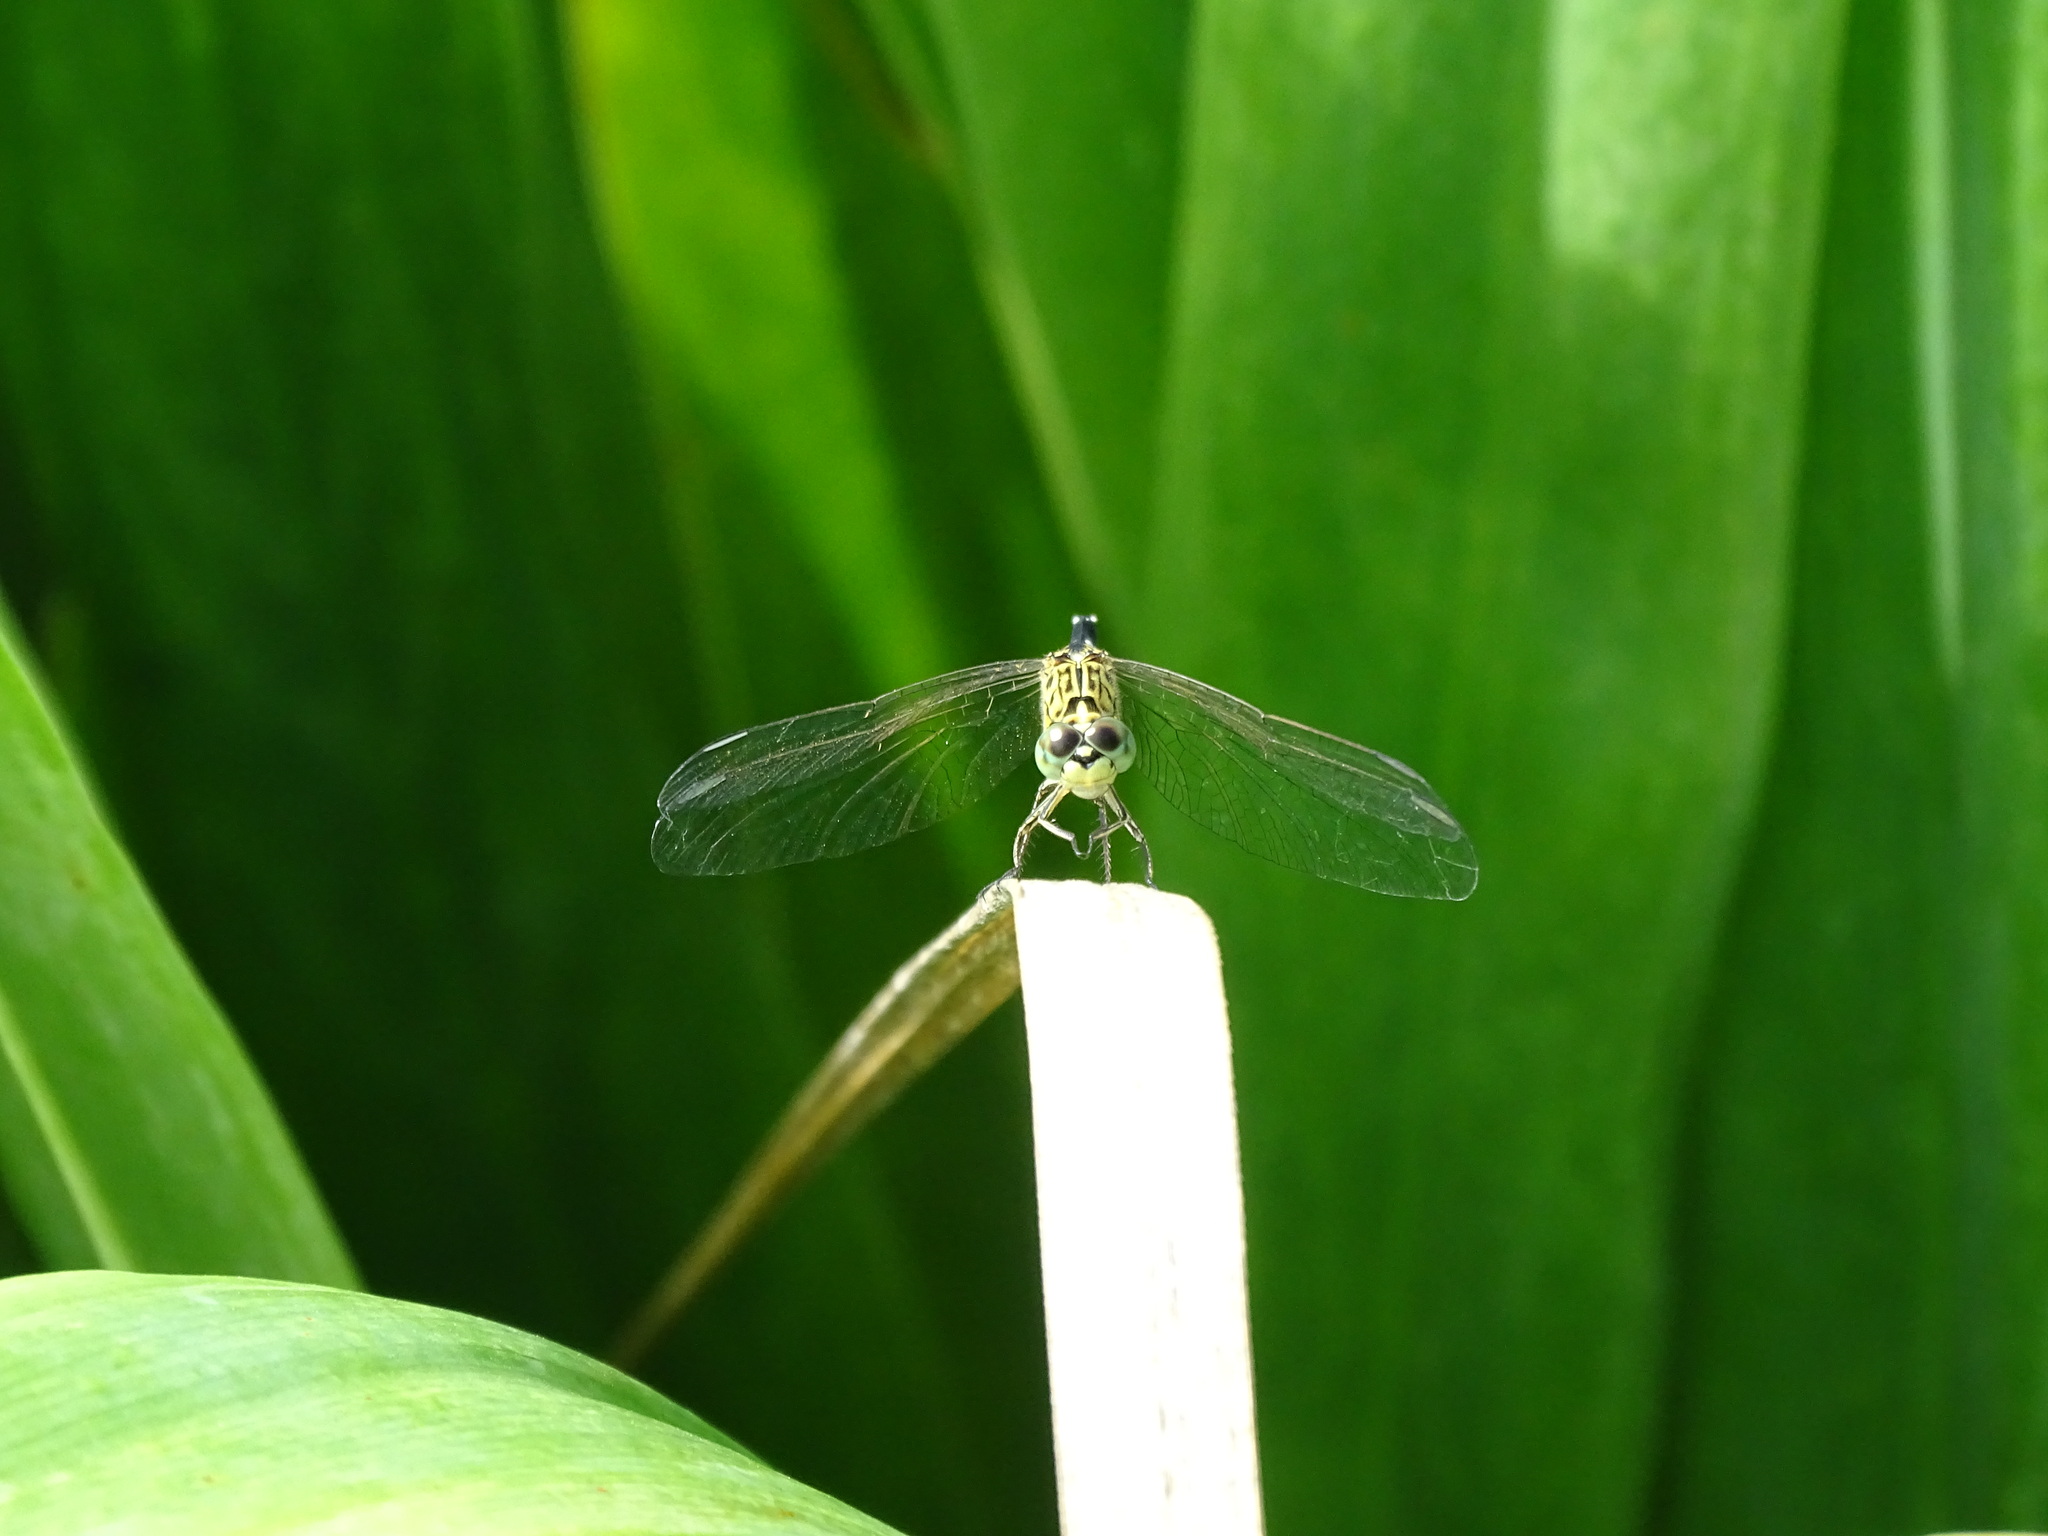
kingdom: Animalia
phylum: Arthropoda
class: Insecta
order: Odonata
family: Libellulidae
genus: Acisoma
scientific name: Acisoma panorpoides
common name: Asian pintail
